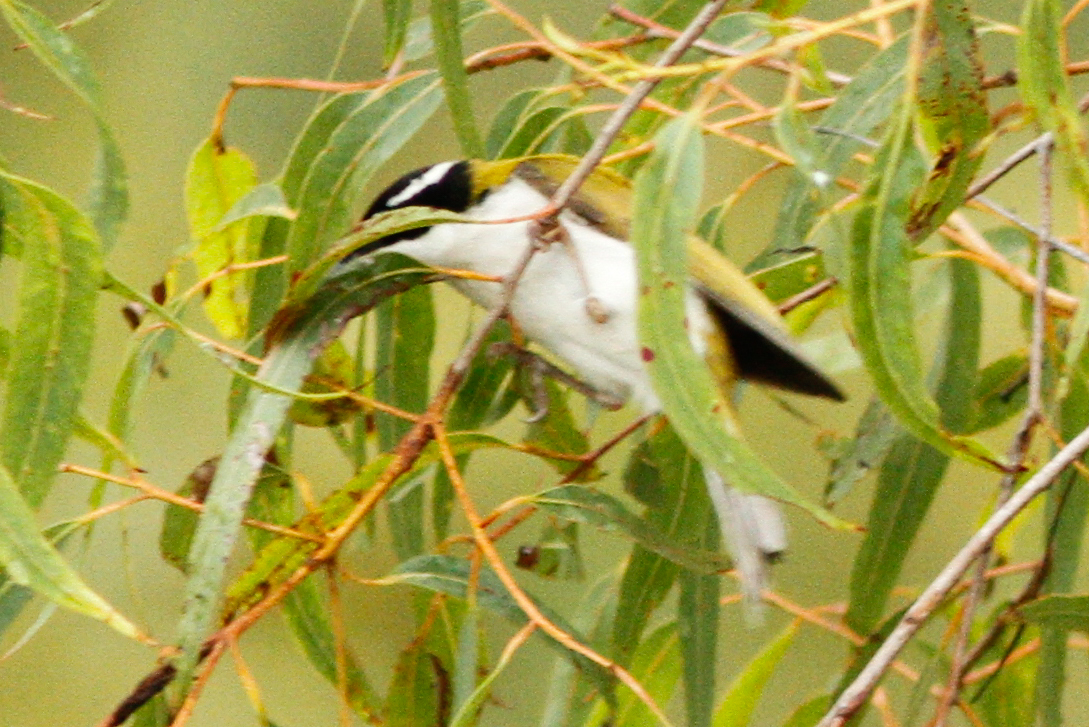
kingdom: Animalia
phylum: Chordata
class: Aves
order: Passeriformes
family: Meliphagidae
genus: Melithreptus
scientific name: Melithreptus albogularis
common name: White-throated honeyeater
